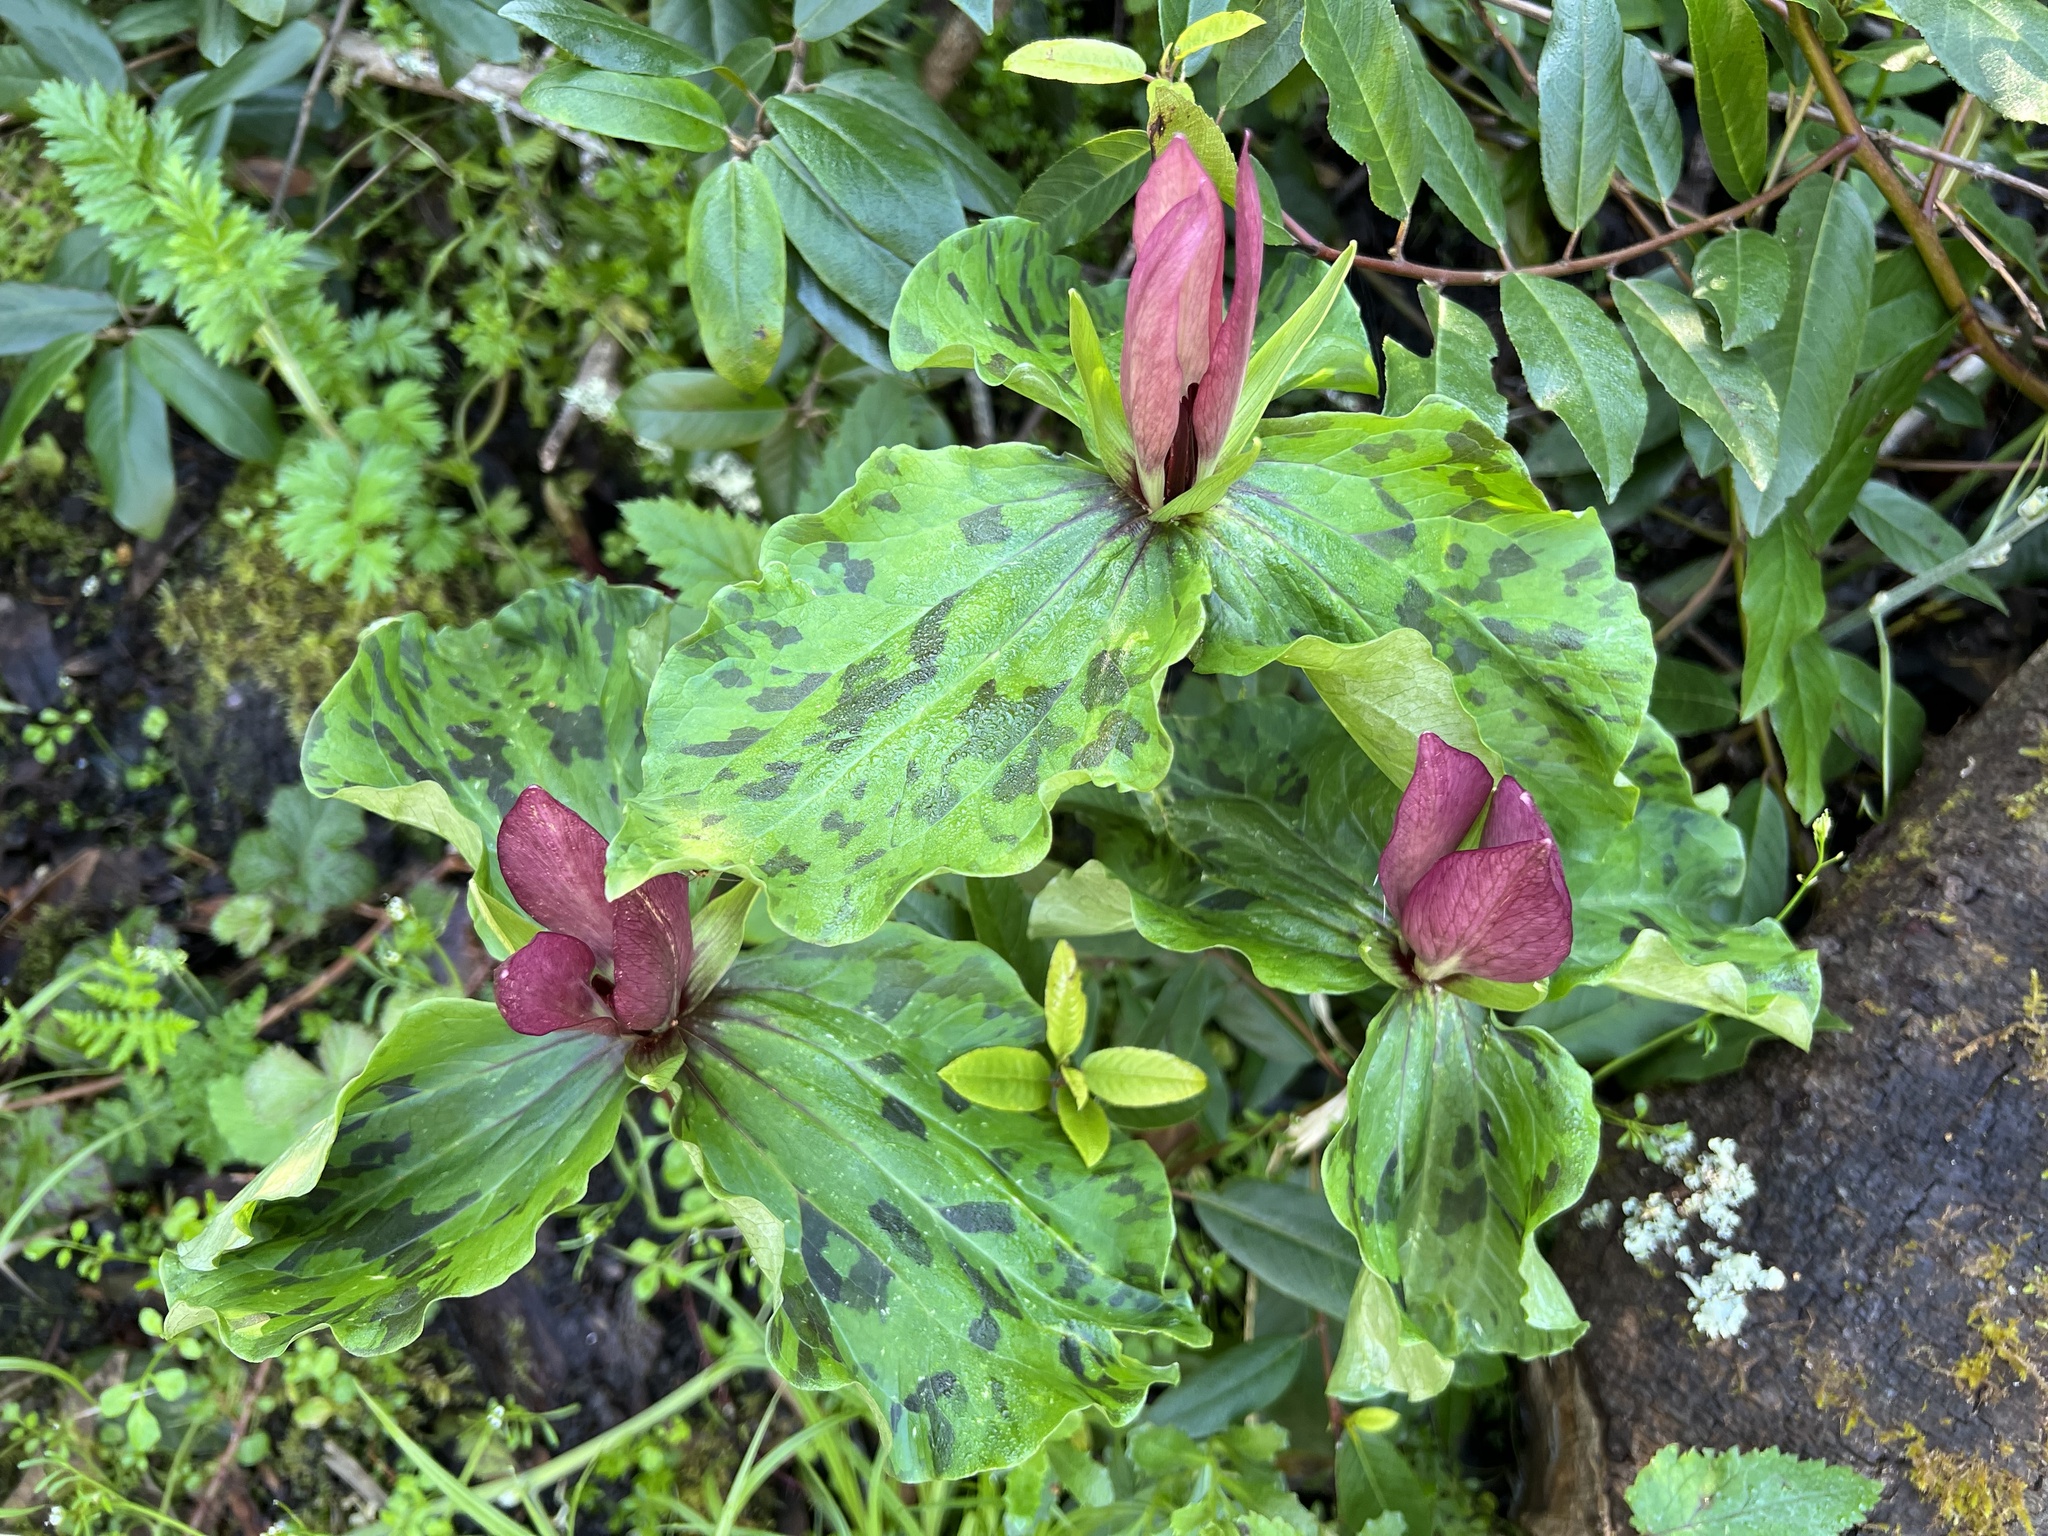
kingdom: Plantae
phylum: Tracheophyta
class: Liliopsida
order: Liliales
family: Melanthiaceae
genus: Trillium
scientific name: Trillium chloropetalum
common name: Giant trillium
